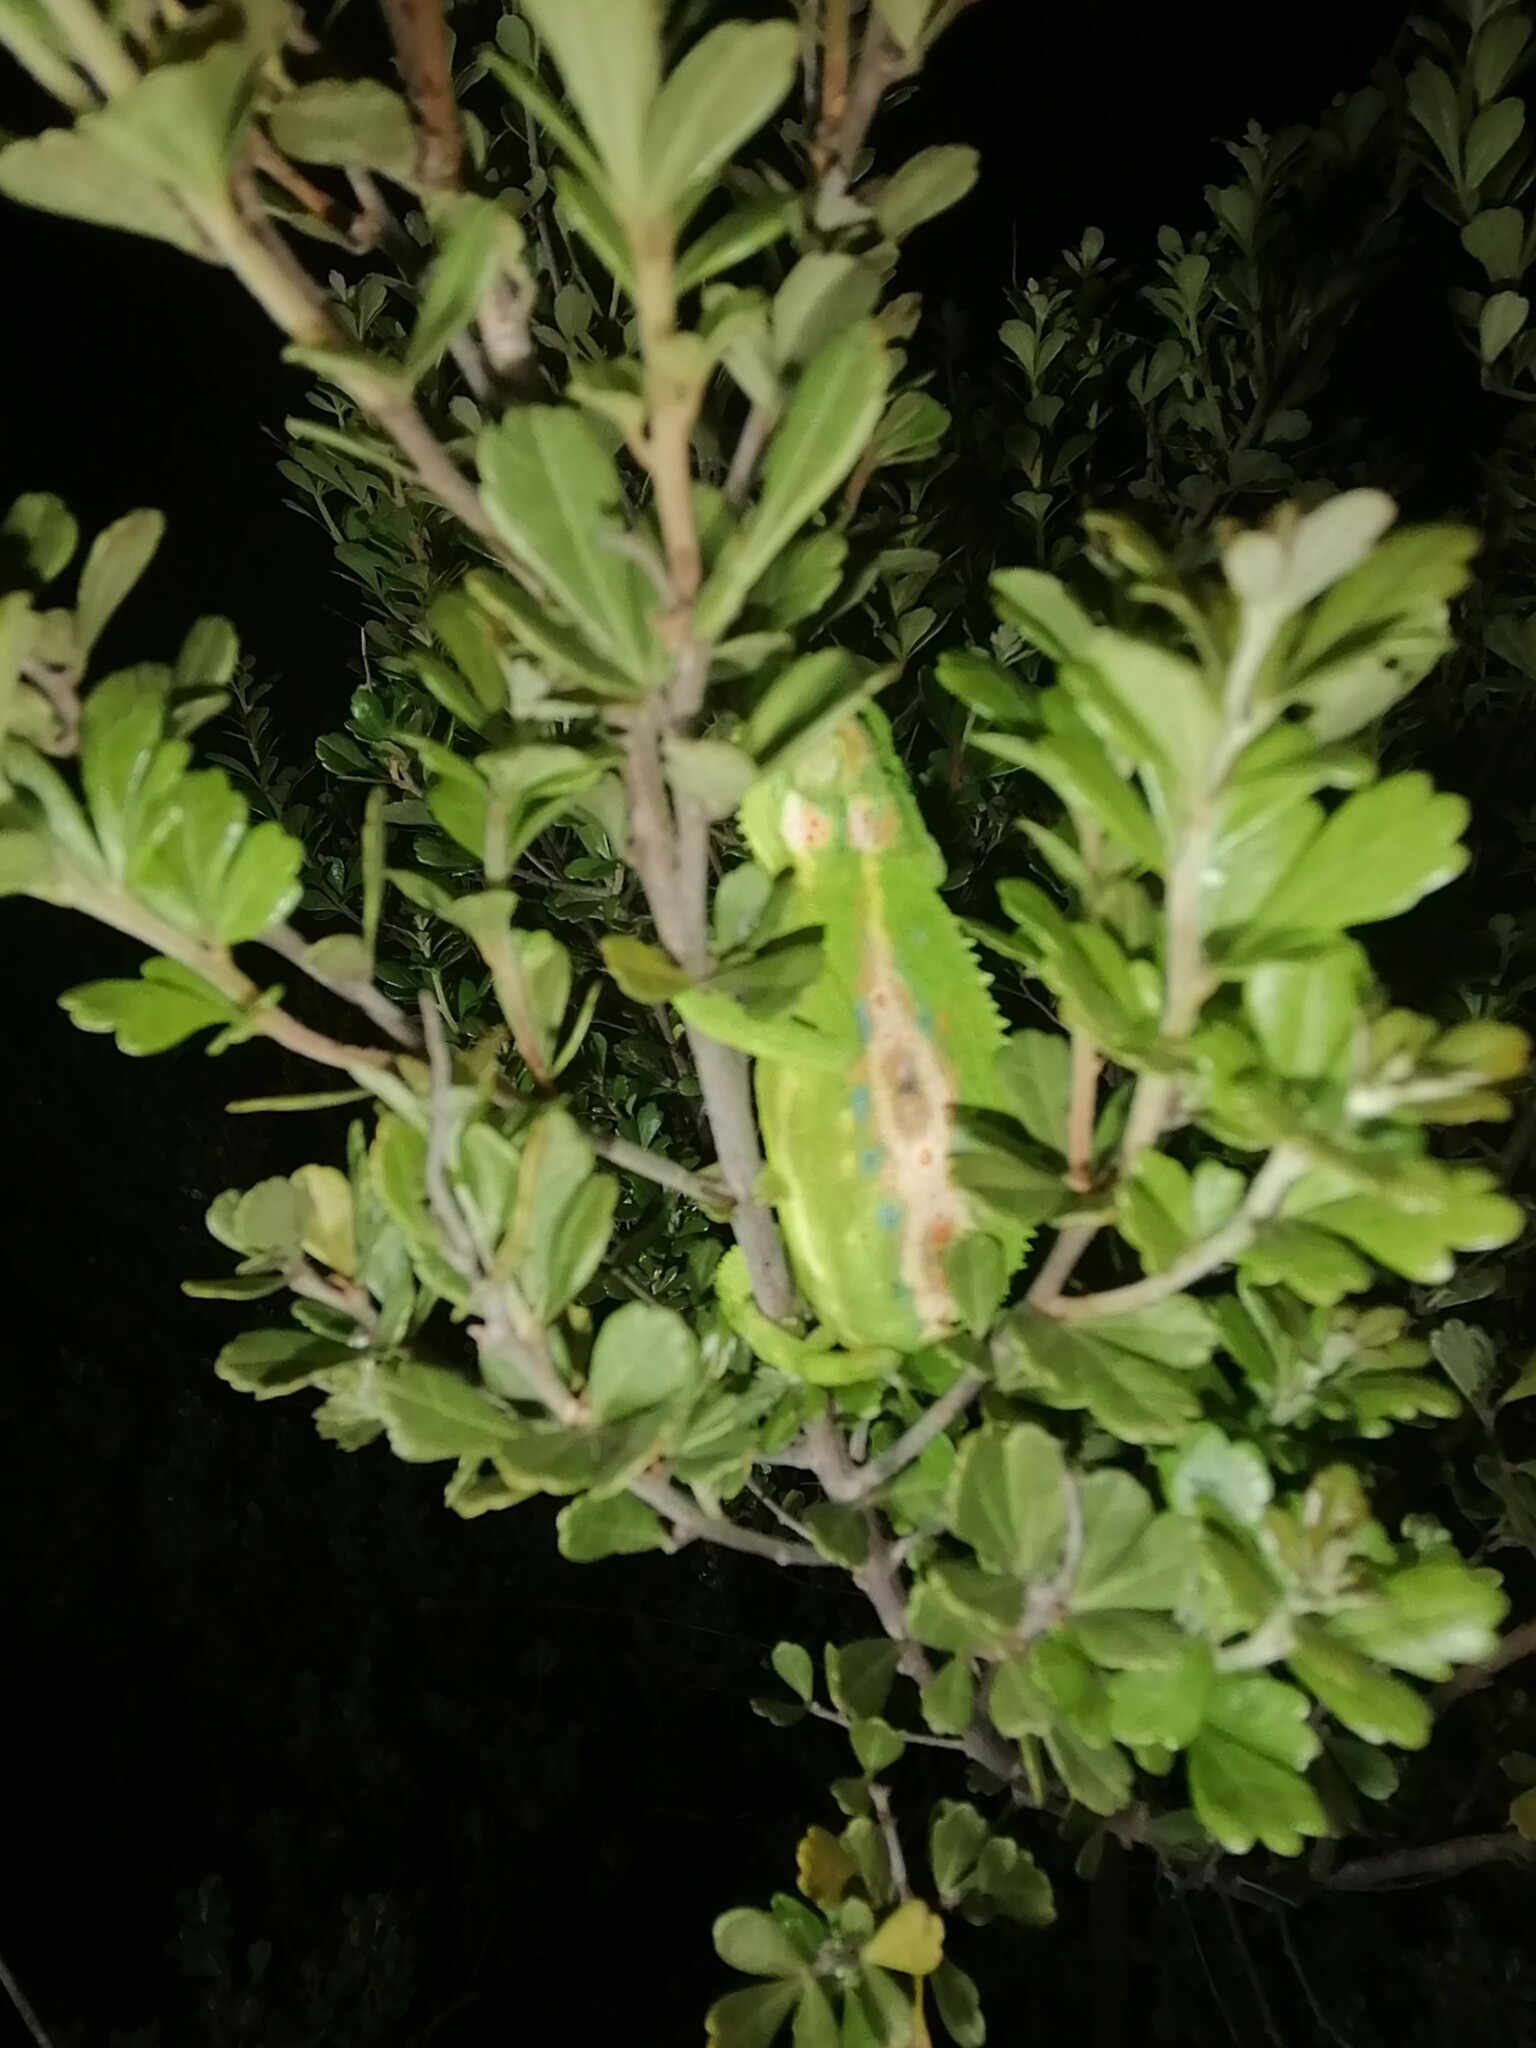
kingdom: Animalia
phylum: Chordata
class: Squamata
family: Chamaeleonidae
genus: Bradypodion
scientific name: Bradypodion pumilum
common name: Cape dwarf chameleon
